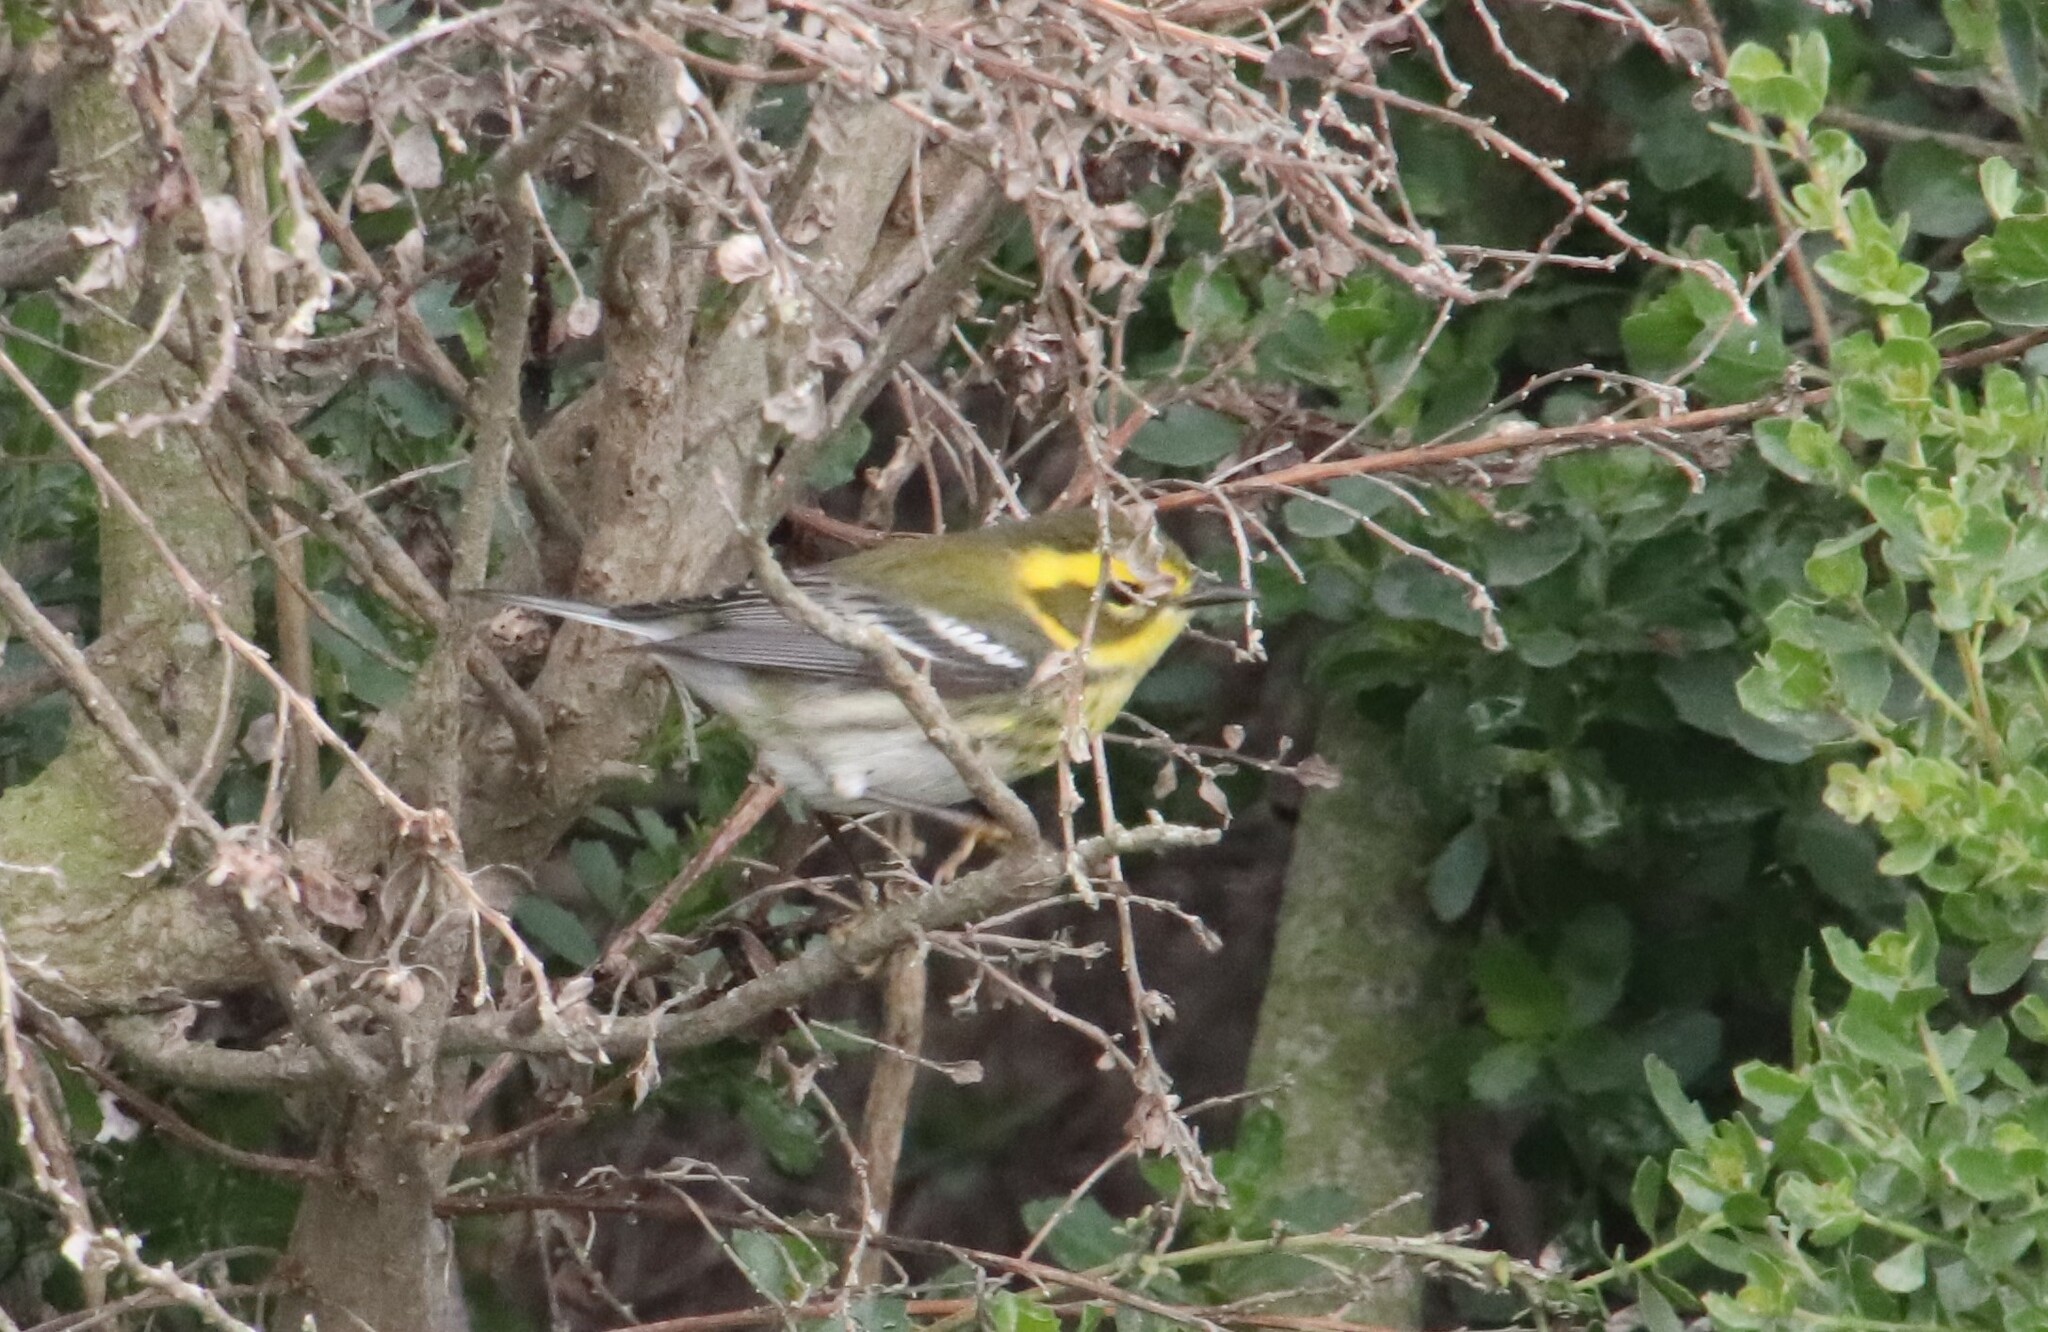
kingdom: Animalia
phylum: Chordata
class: Aves
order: Passeriformes
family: Parulidae
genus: Setophaga
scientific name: Setophaga townsendi
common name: Townsend's warbler
